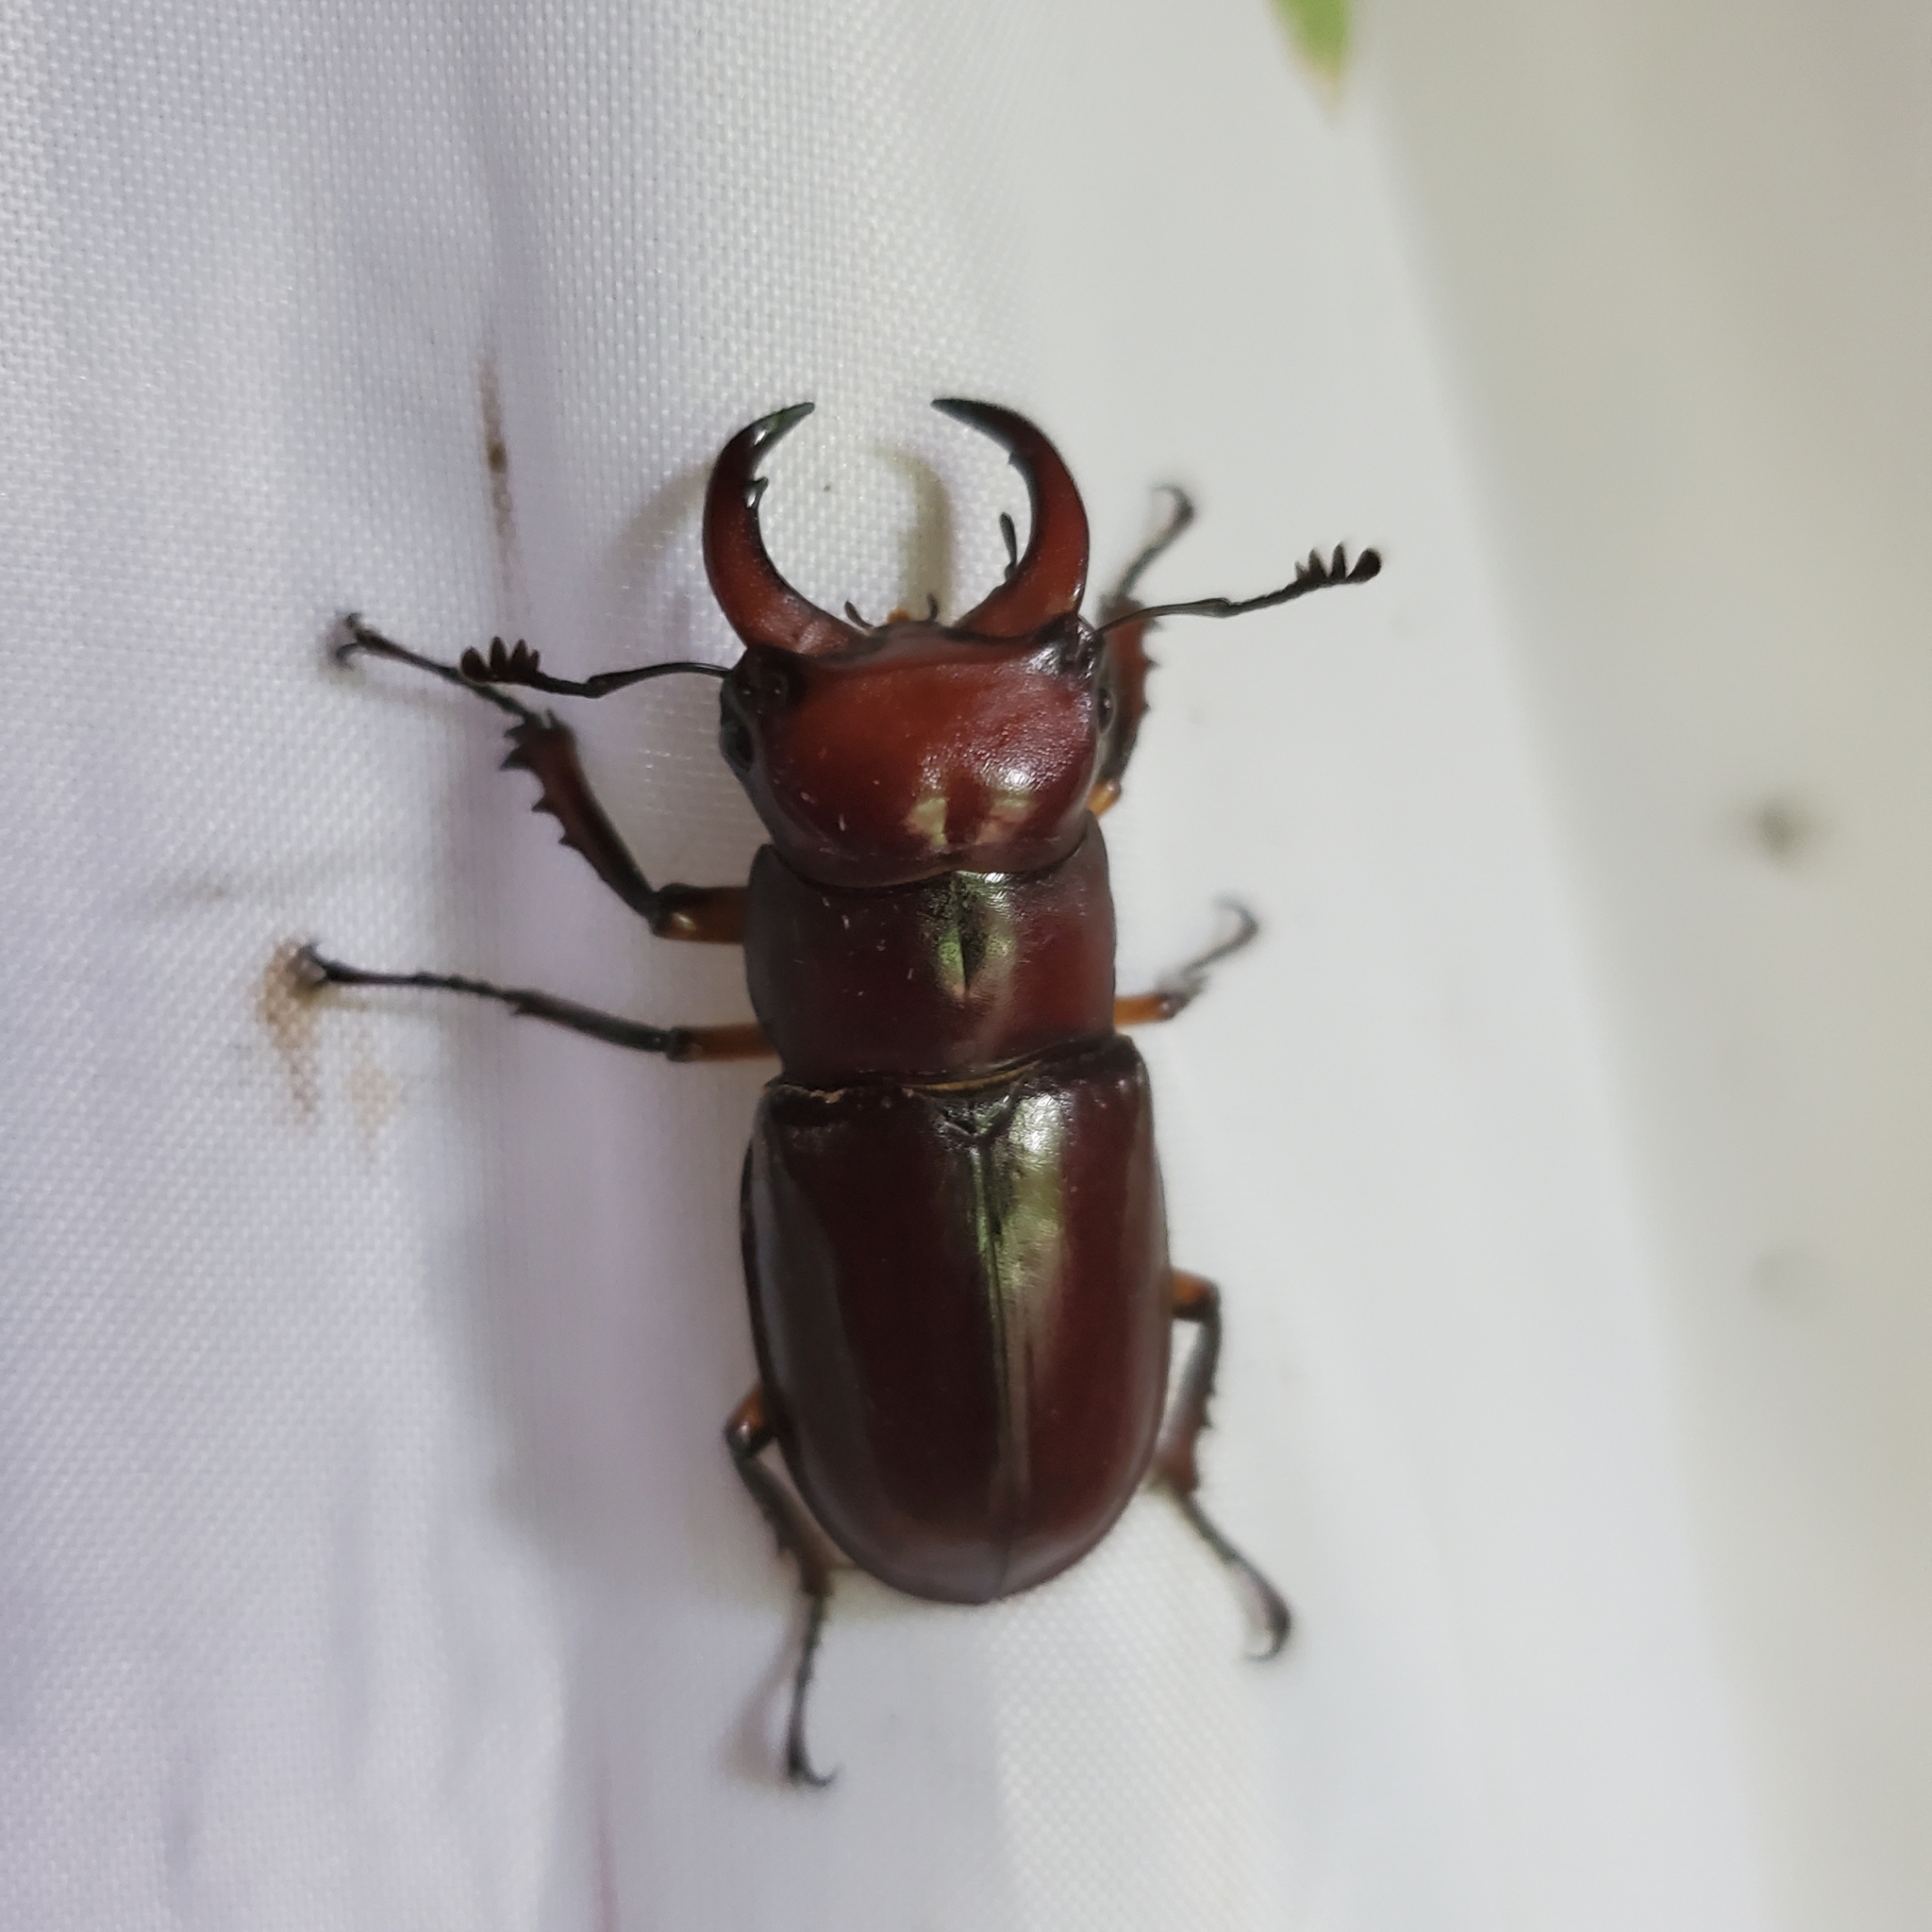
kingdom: Animalia
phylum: Arthropoda
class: Insecta
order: Coleoptera
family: Lucanidae
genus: Lucanus
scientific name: Lucanus capreolus
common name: Stag beetle
